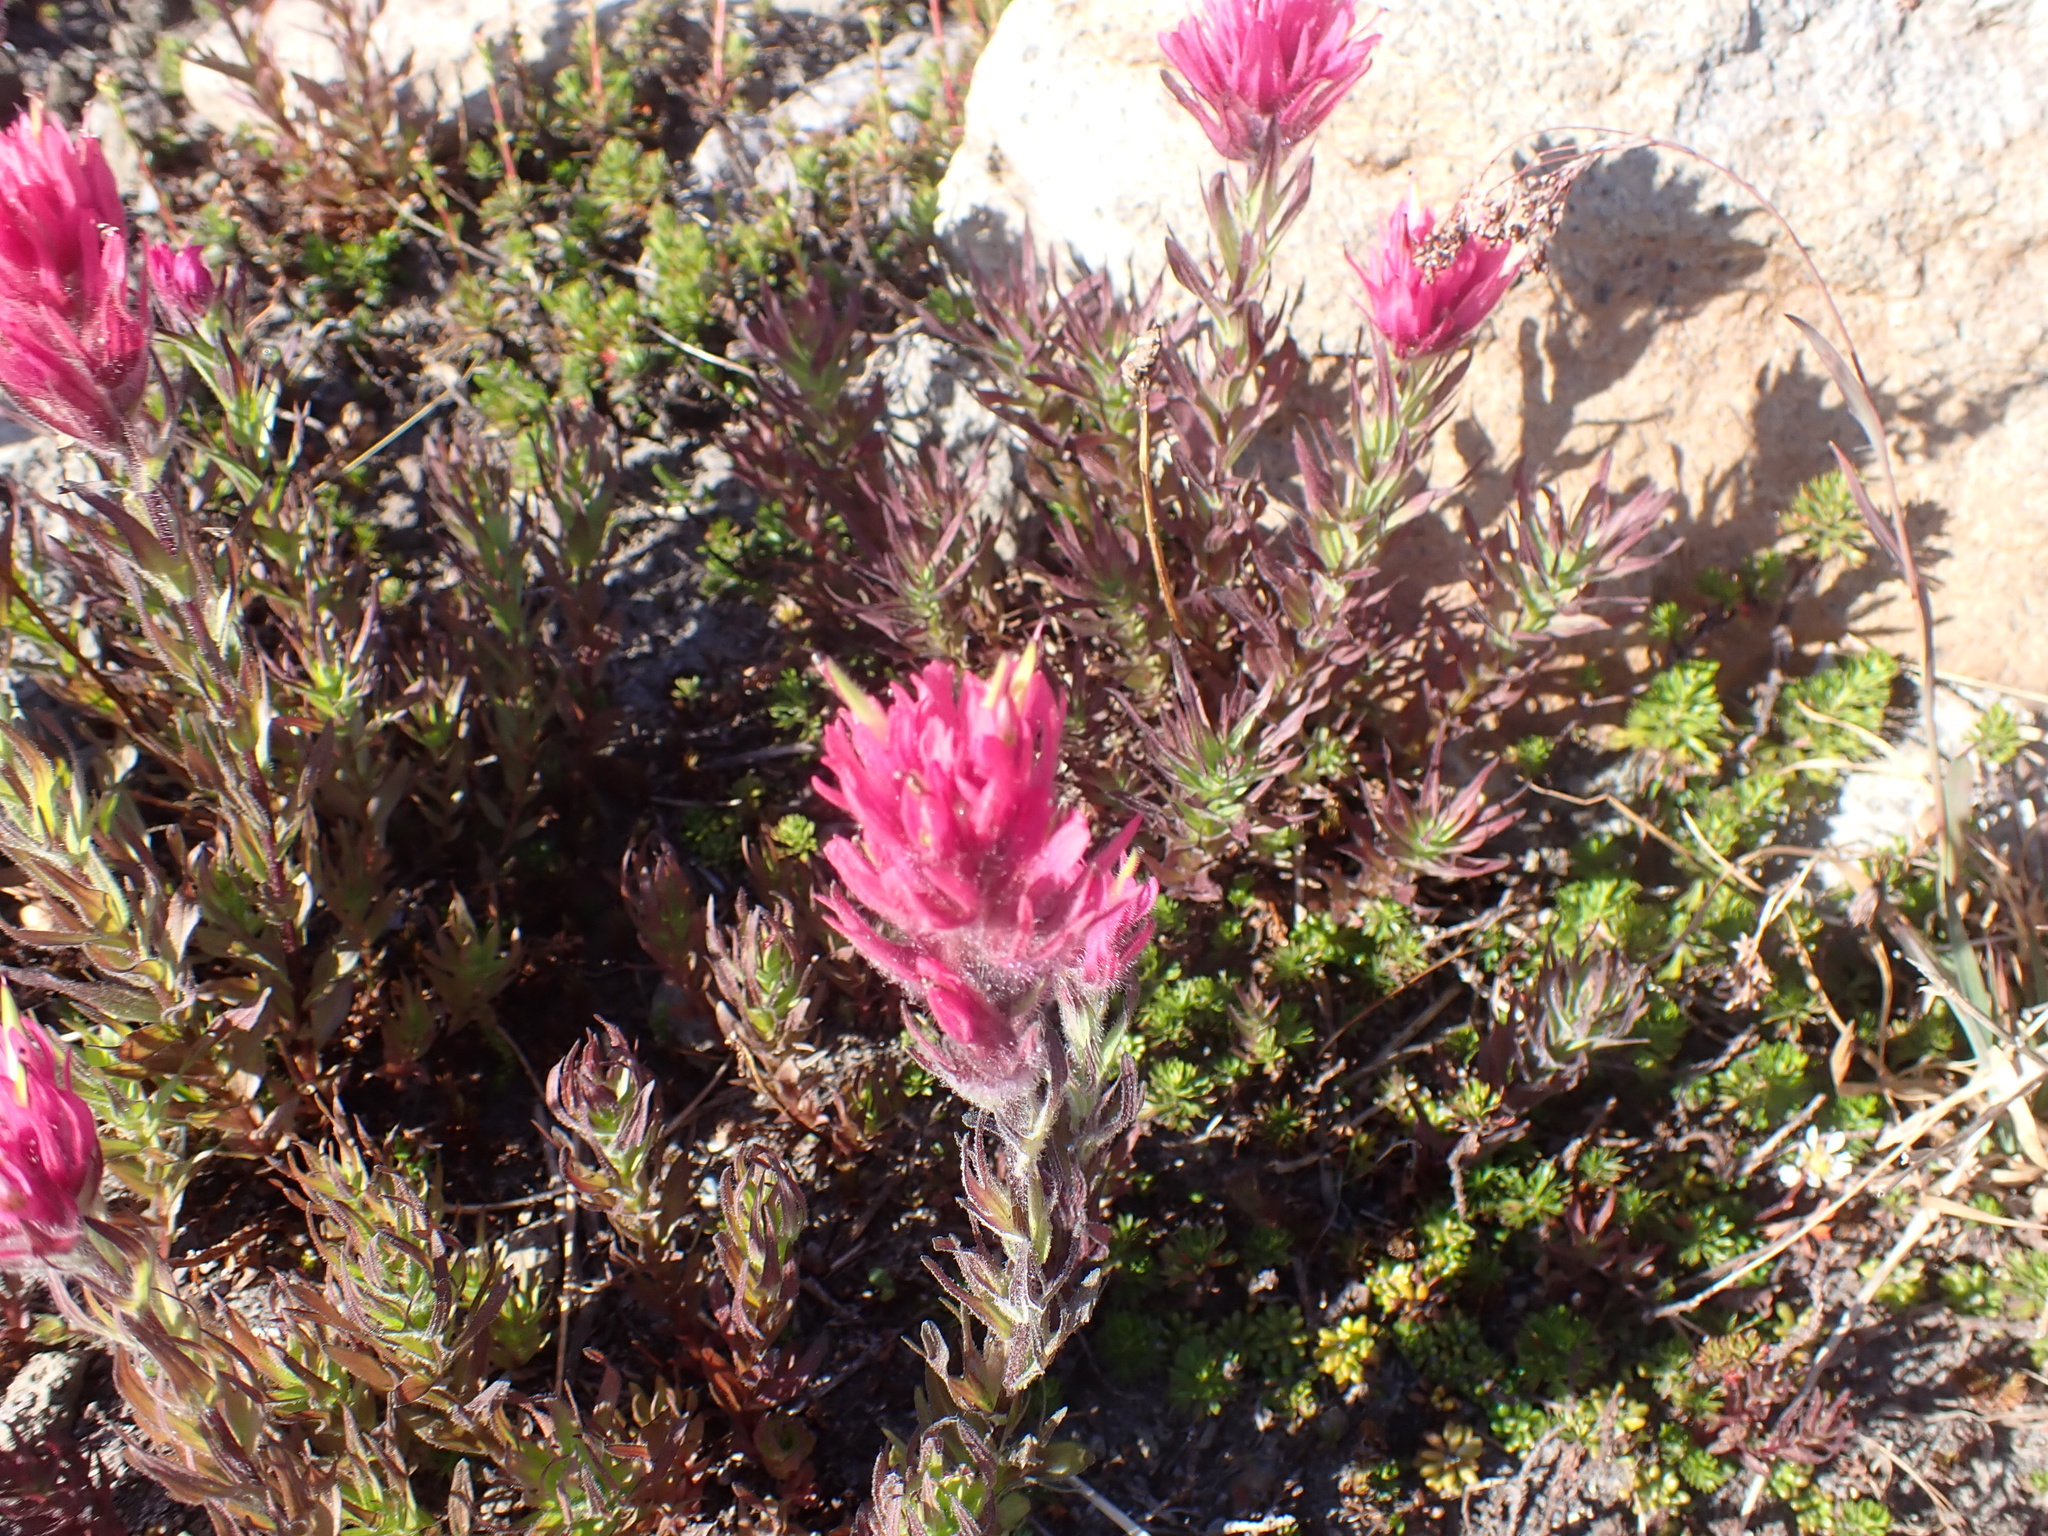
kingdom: Plantae
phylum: Tracheophyta
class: Magnoliopsida
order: Lamiales
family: Orobanchaceae
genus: Castilleja
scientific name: Castilleja parviflora
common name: Mountain paintbrush
